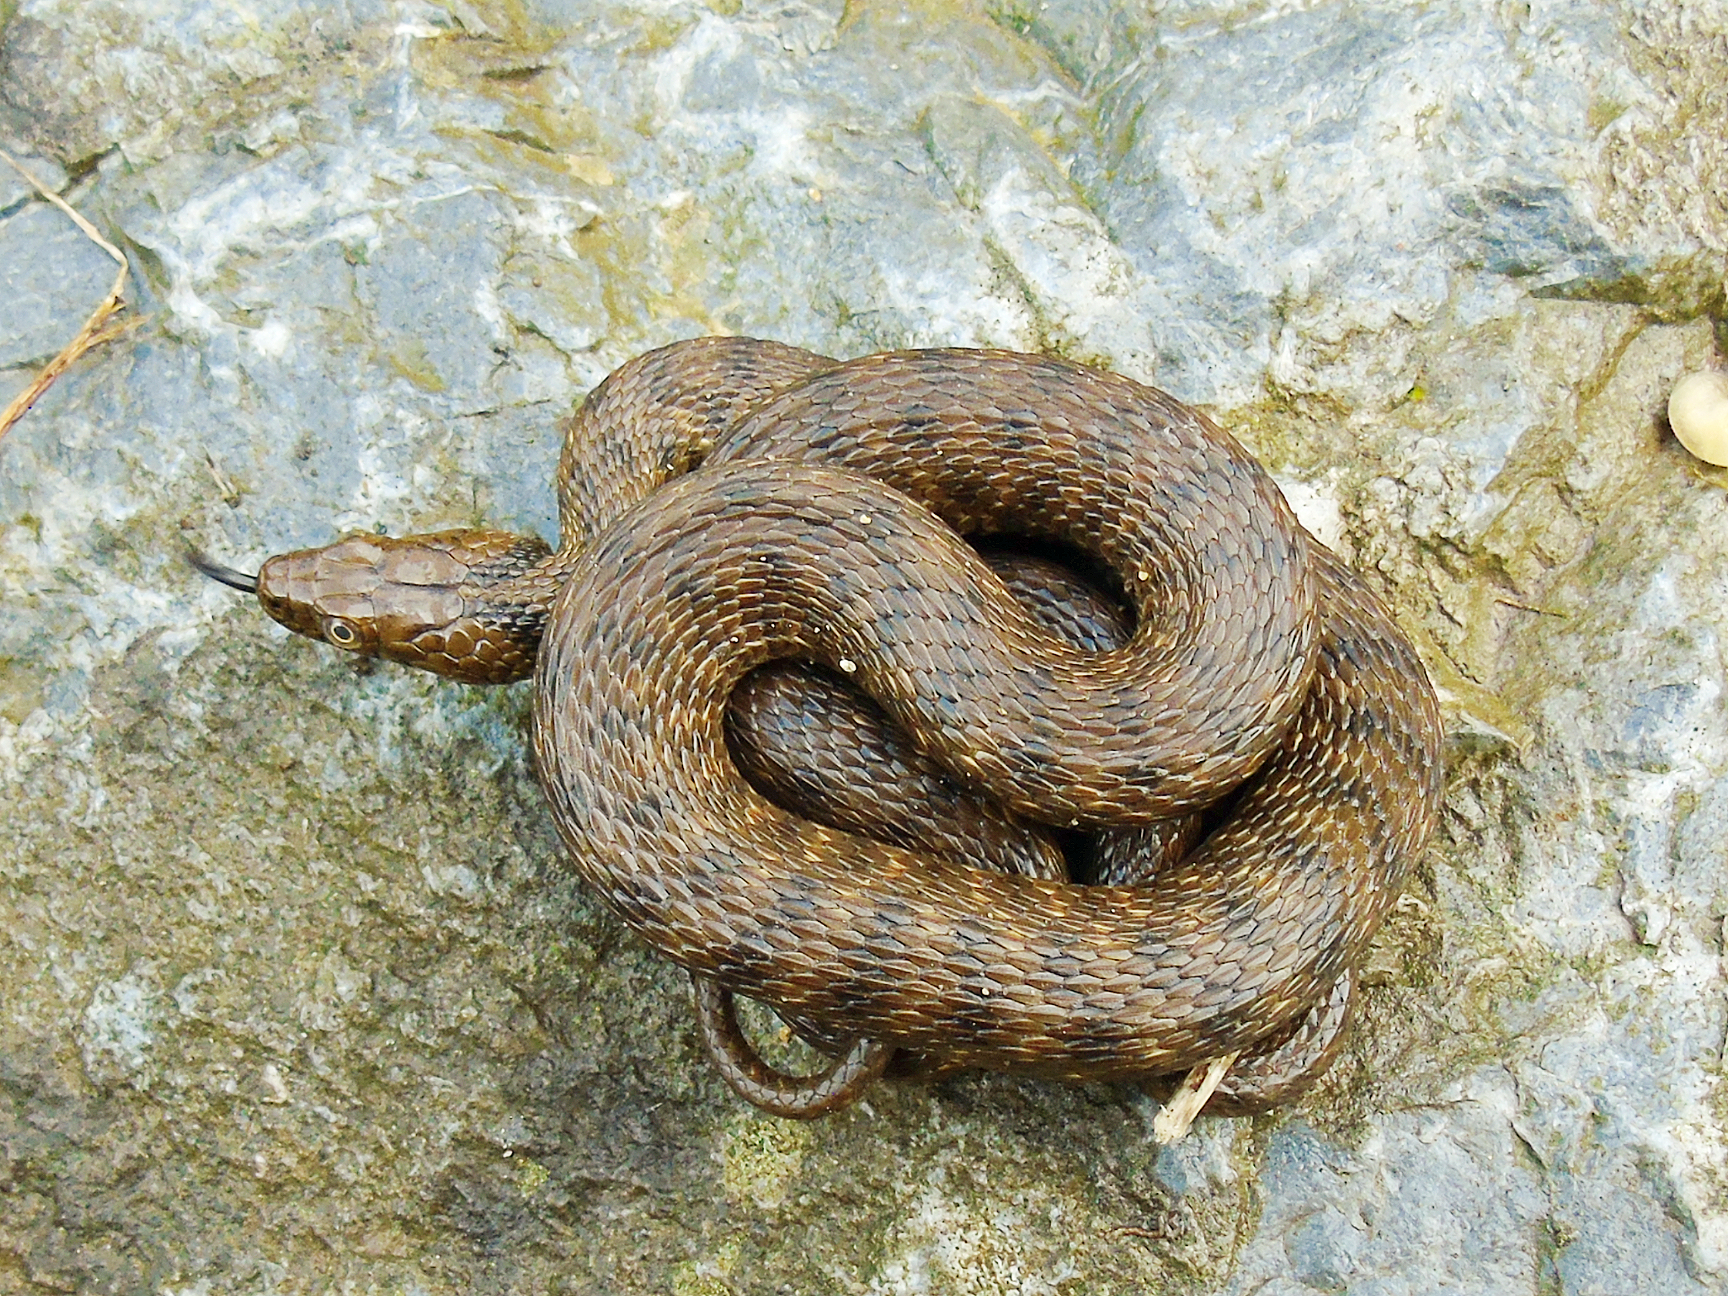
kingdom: Animalia
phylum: Chordata
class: Squamata
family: Colubridae
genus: Natrix
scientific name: Natrix tessellata
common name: Dice snake
